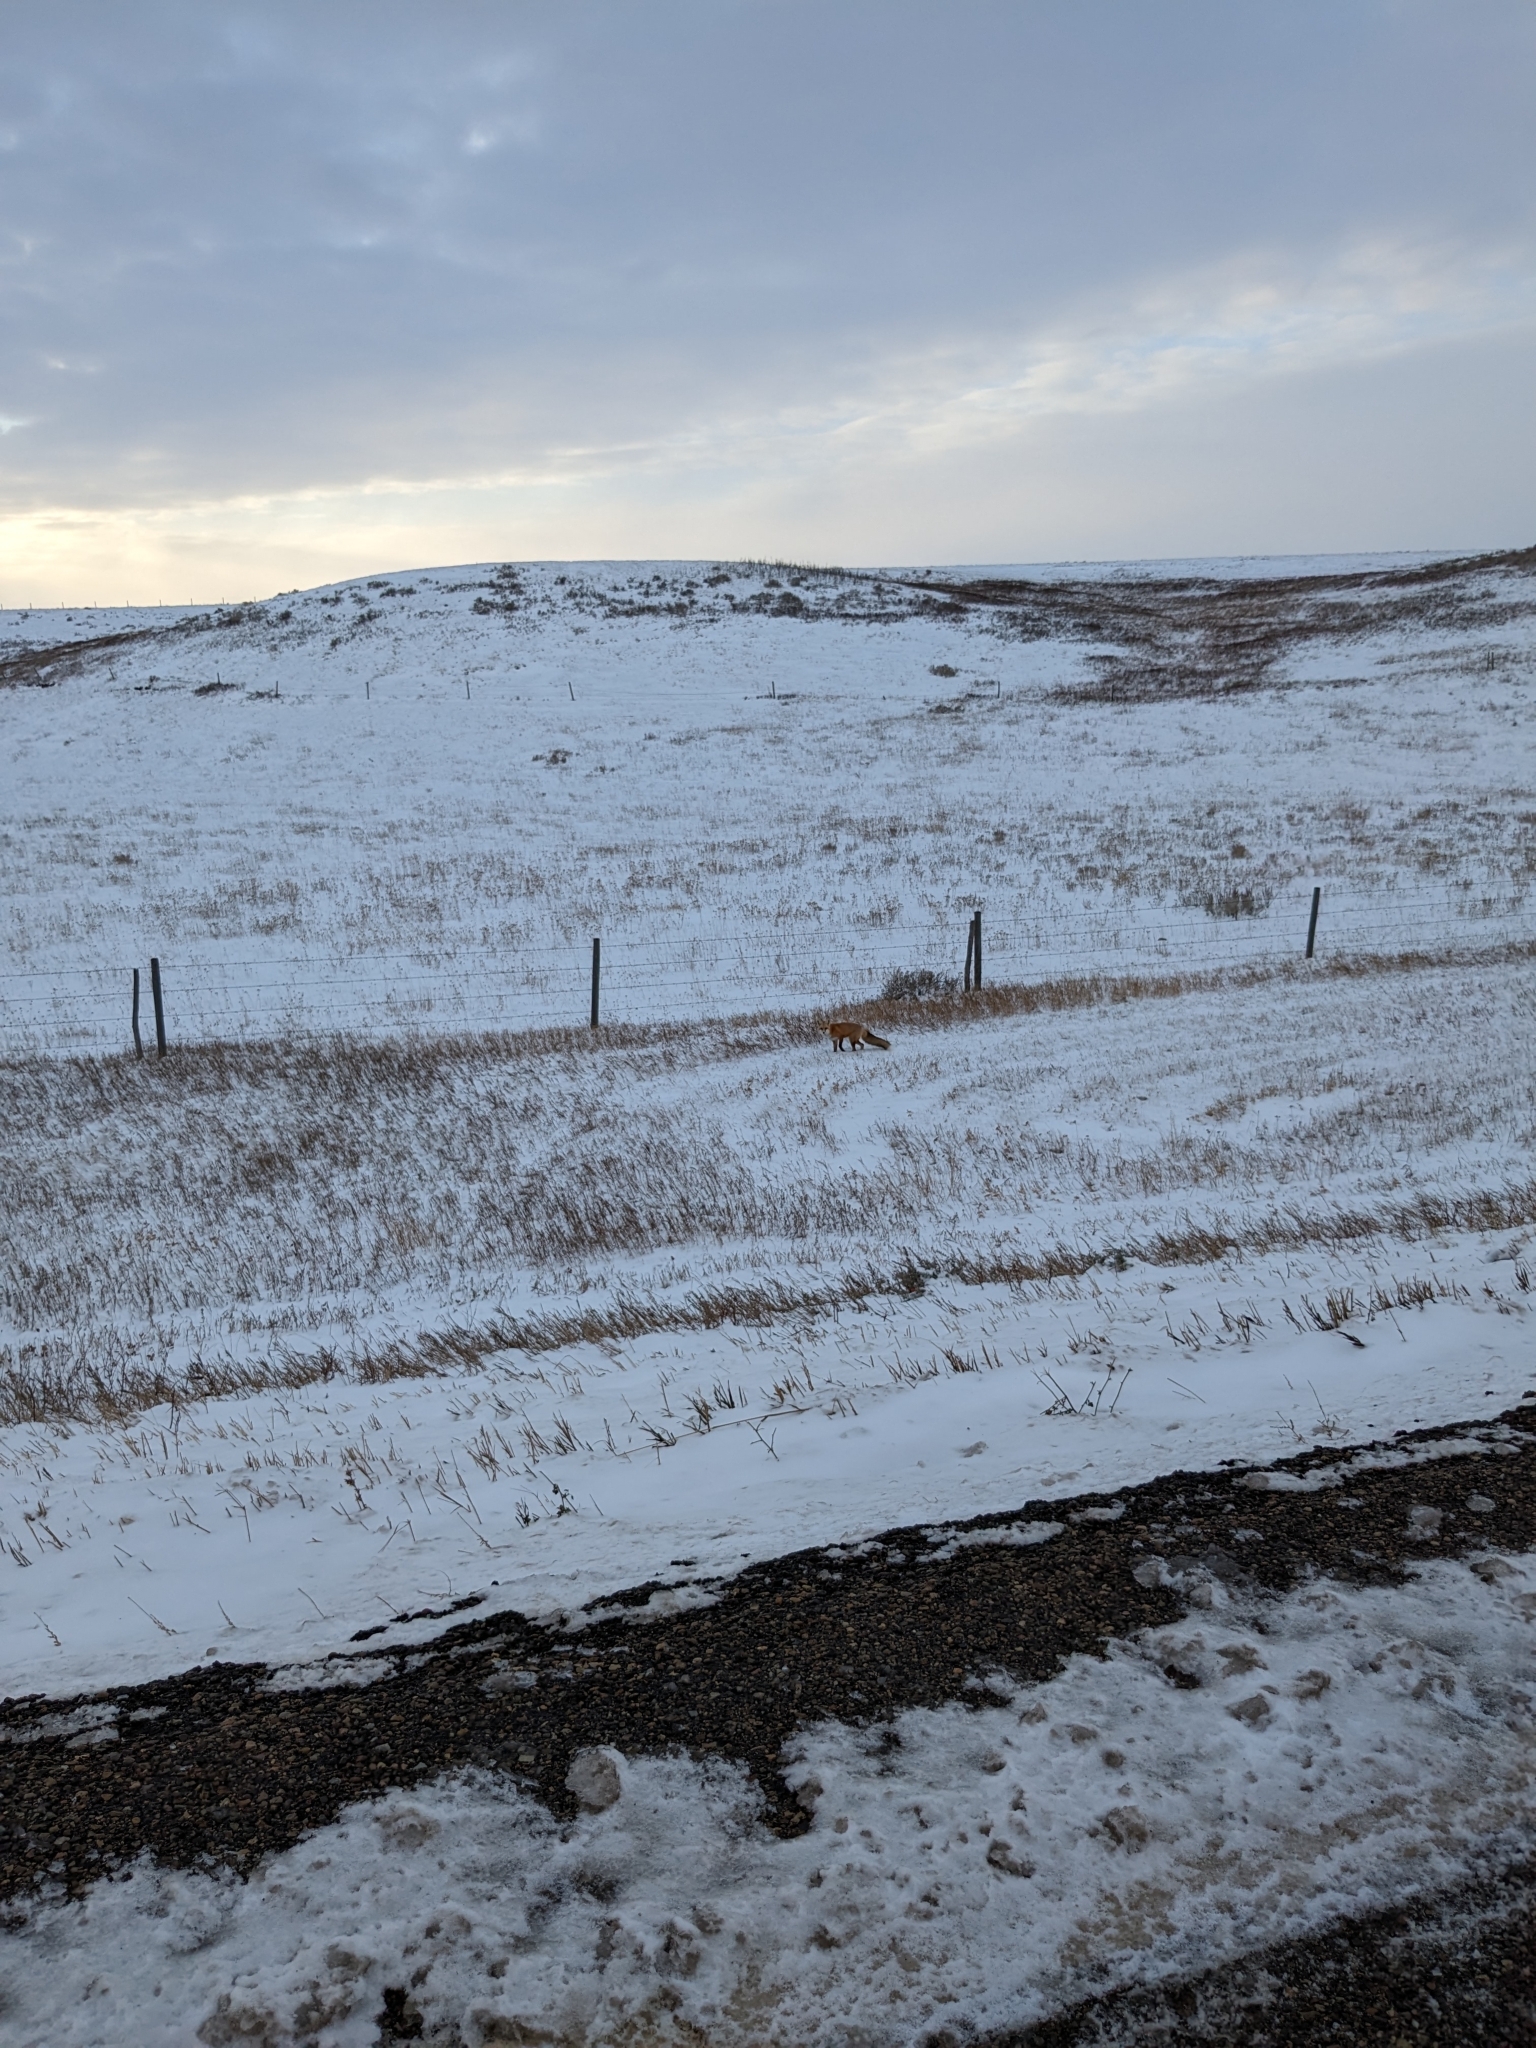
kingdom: Animalia
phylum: Chordata
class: Mammalia
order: Carnivora
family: Canidae
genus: Vulpes
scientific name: Vulpes vulpes
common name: Red fox
